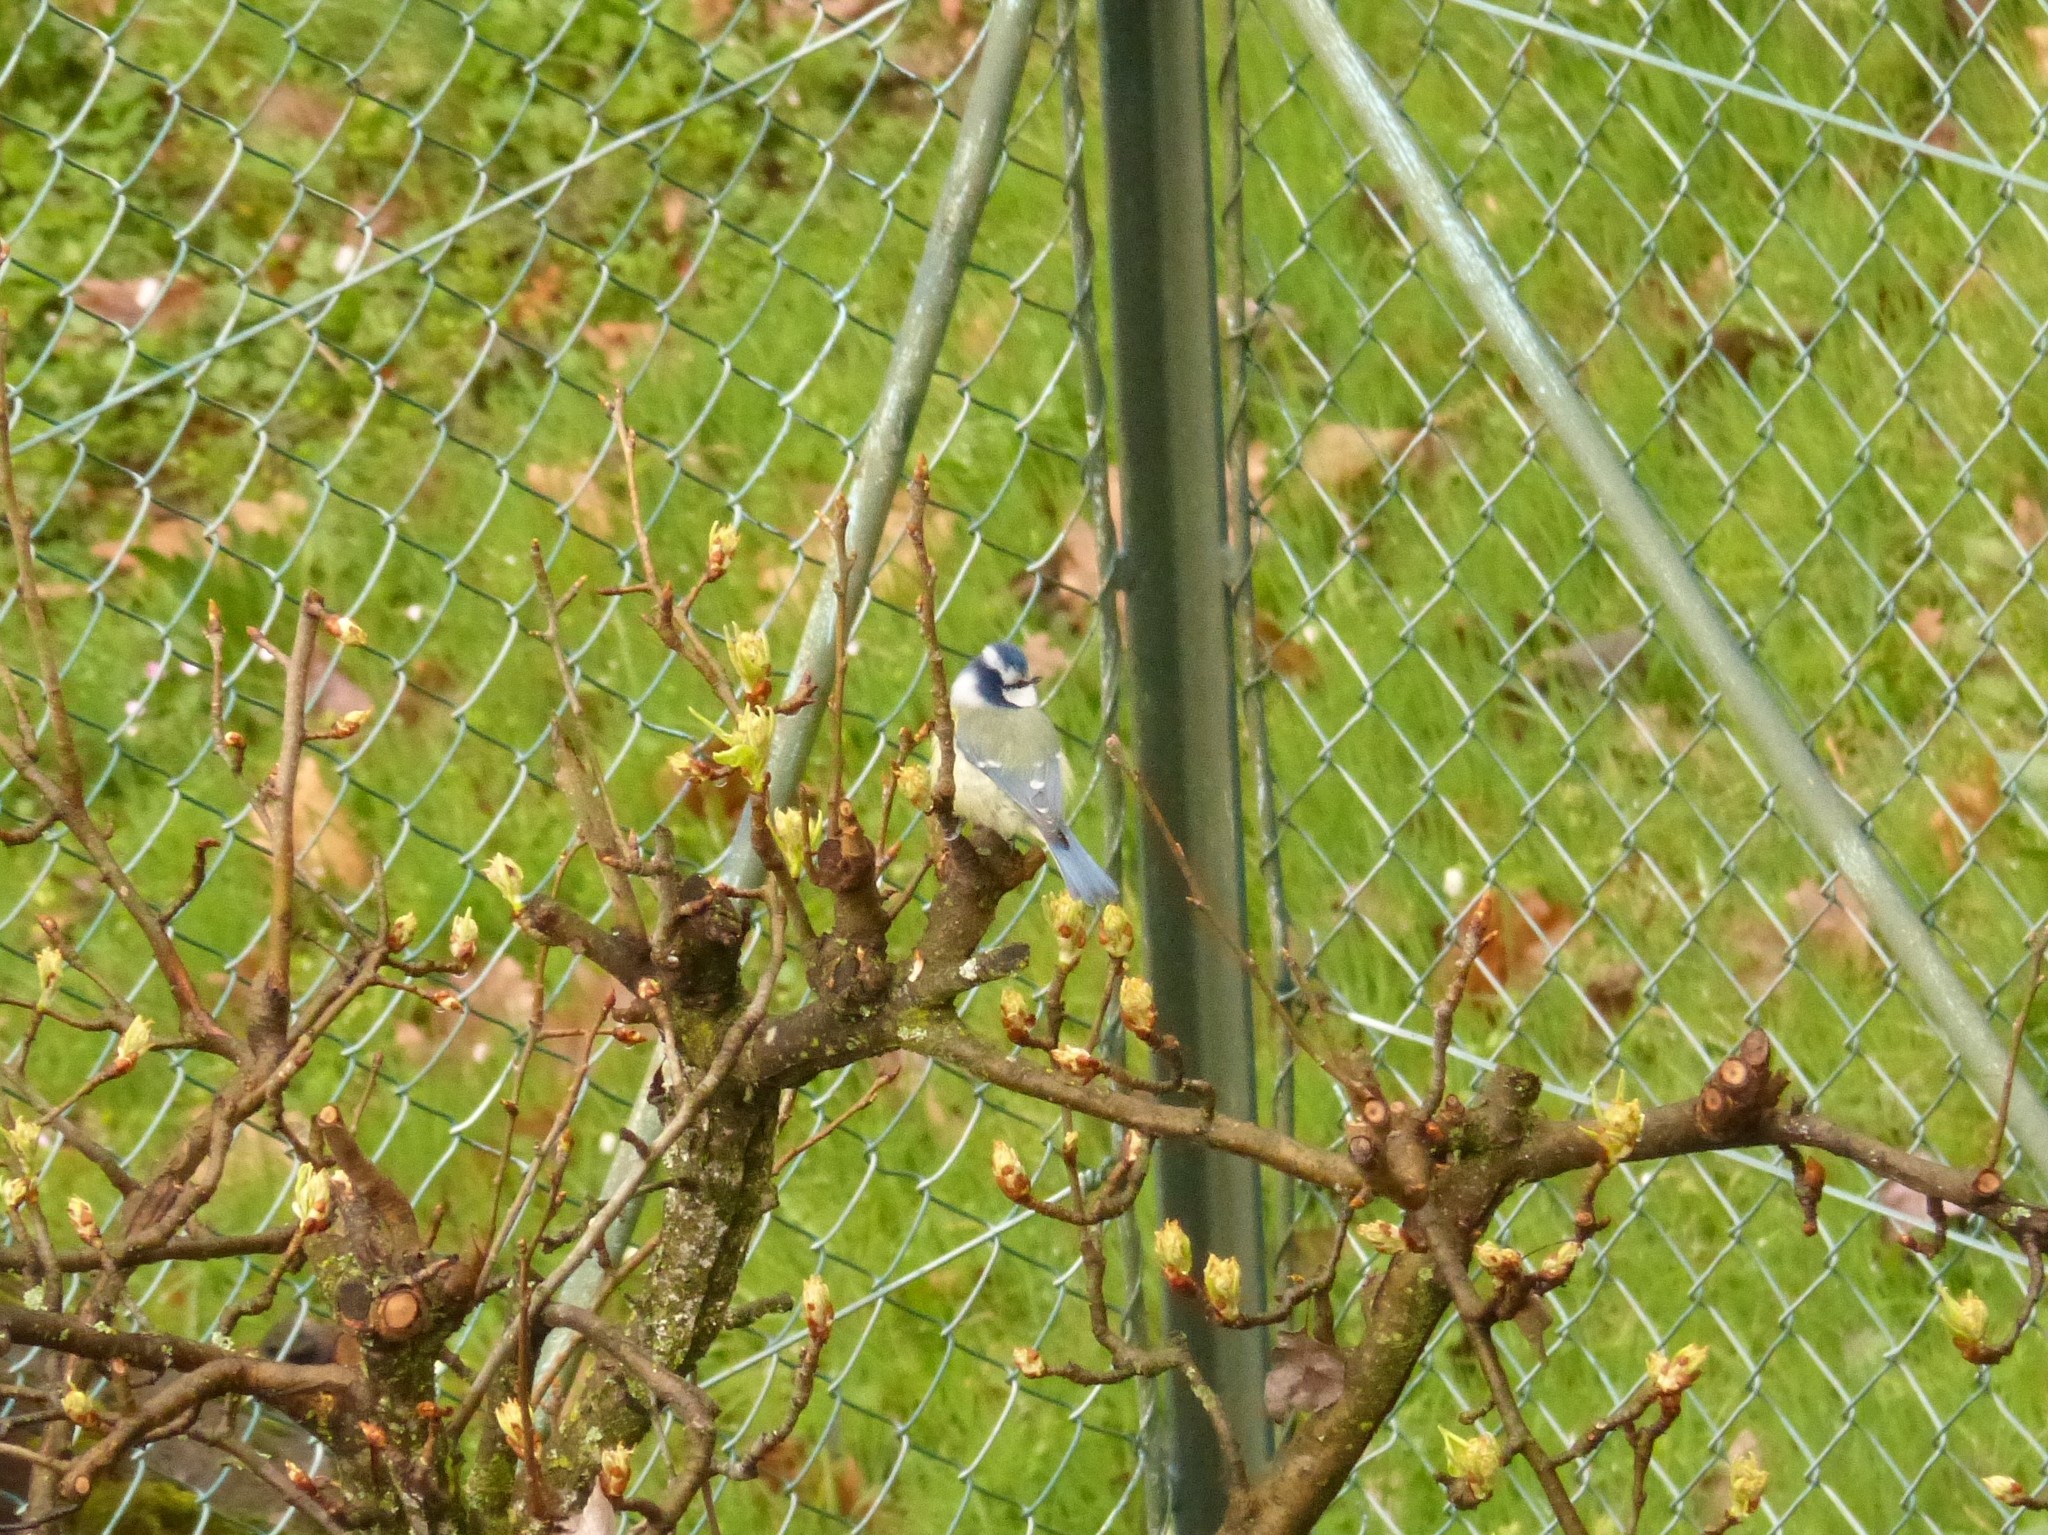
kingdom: Animalia
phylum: Chordata
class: Aves
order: Passeriformes
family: Paridae
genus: Cyanistes
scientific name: Cyanistes caeruleus
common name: Eurasian blue tit
